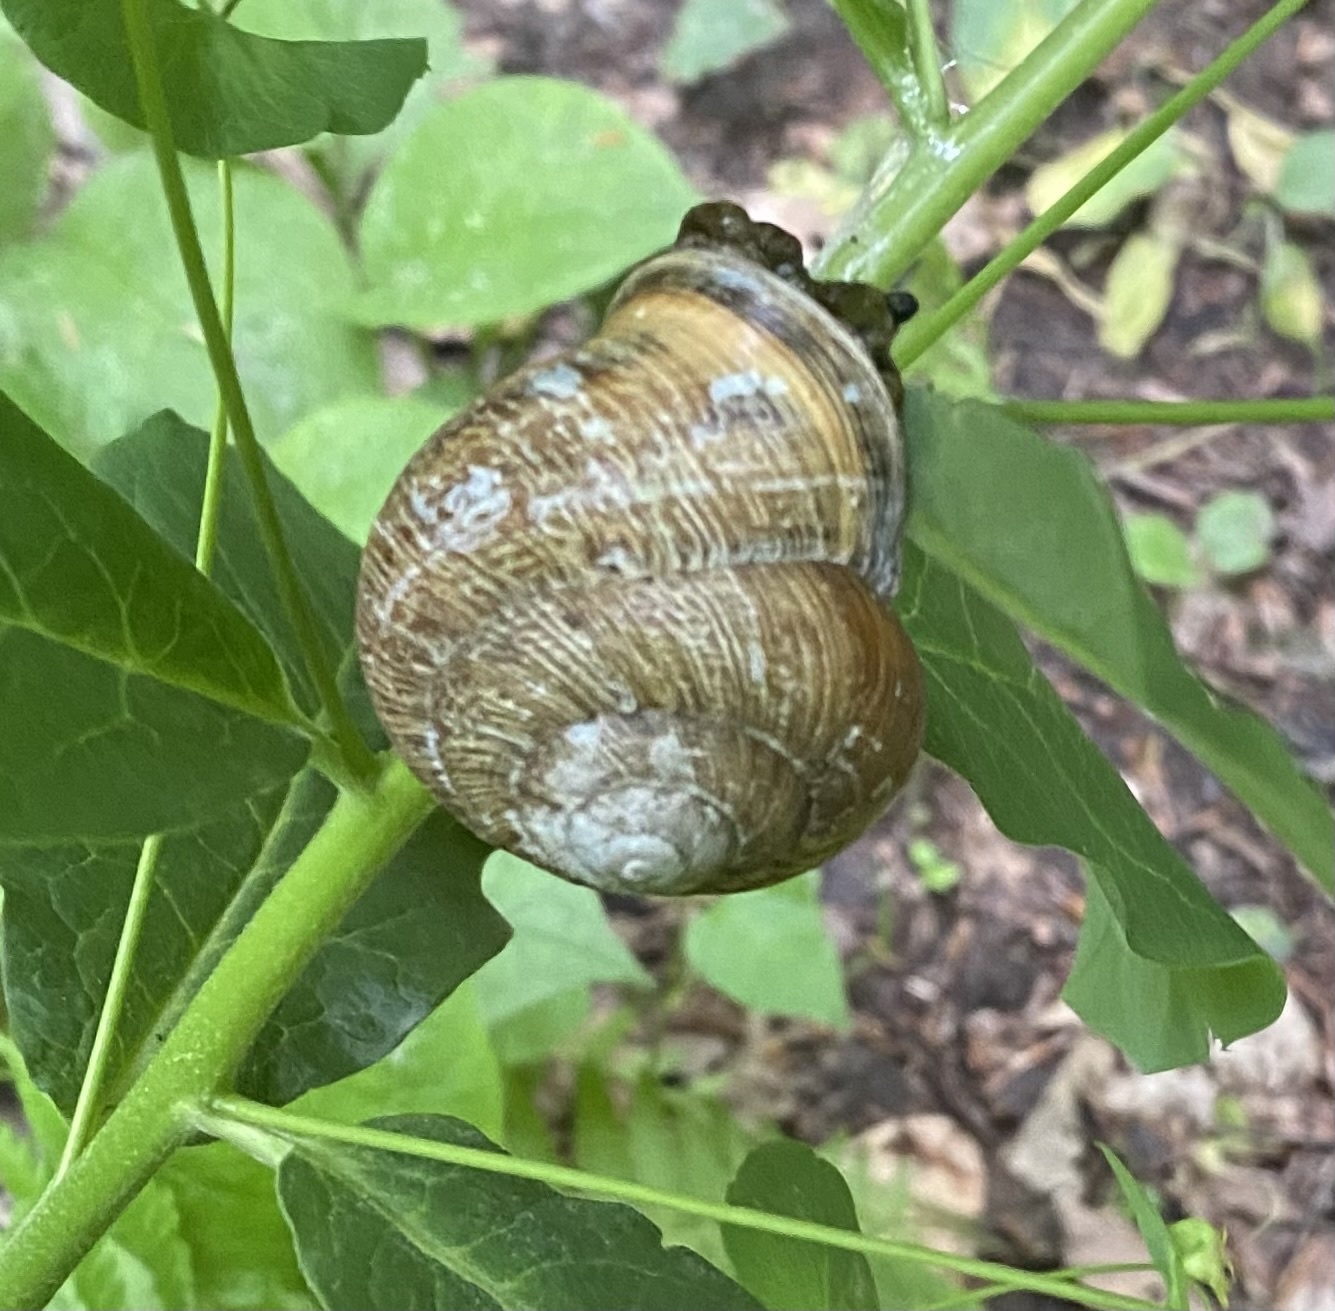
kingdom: Animalia
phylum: Mollusca
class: Gastropoda
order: Stylommatophora
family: Helicidae
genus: Caucasotachea
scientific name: Caucasotachea atrolabiata
